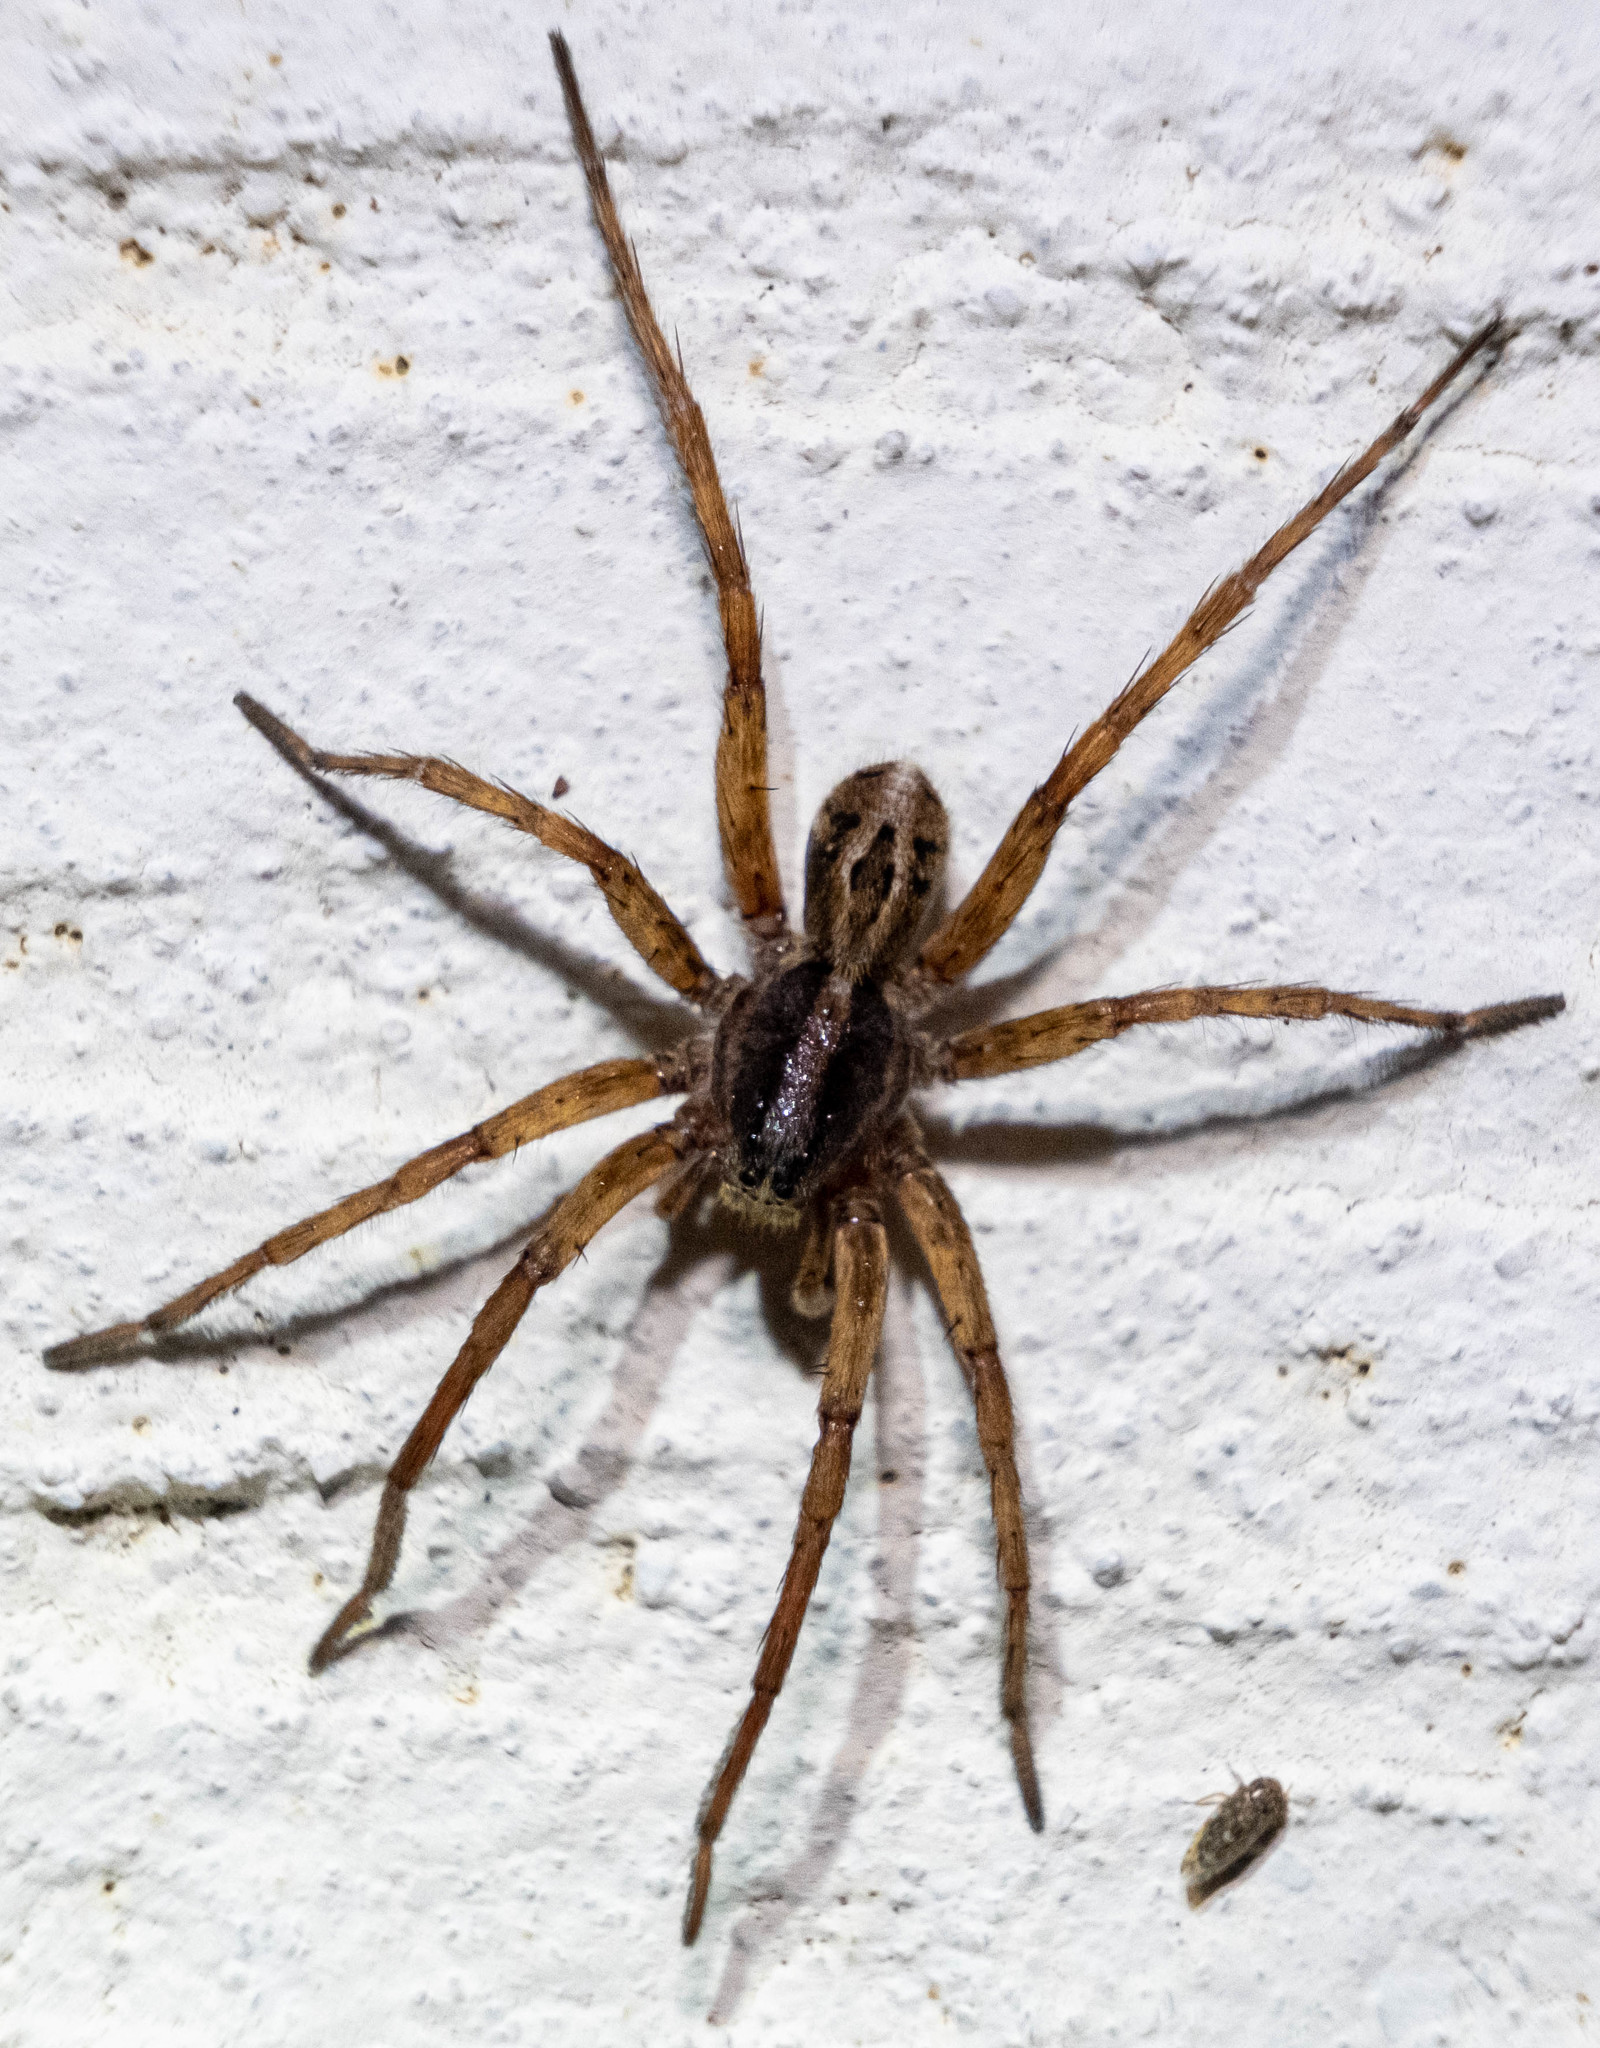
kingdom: Animalia
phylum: Arthropoda
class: Arachnida
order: Araneae
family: Lycosidae
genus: Schizocosa
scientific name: Schizocosa
